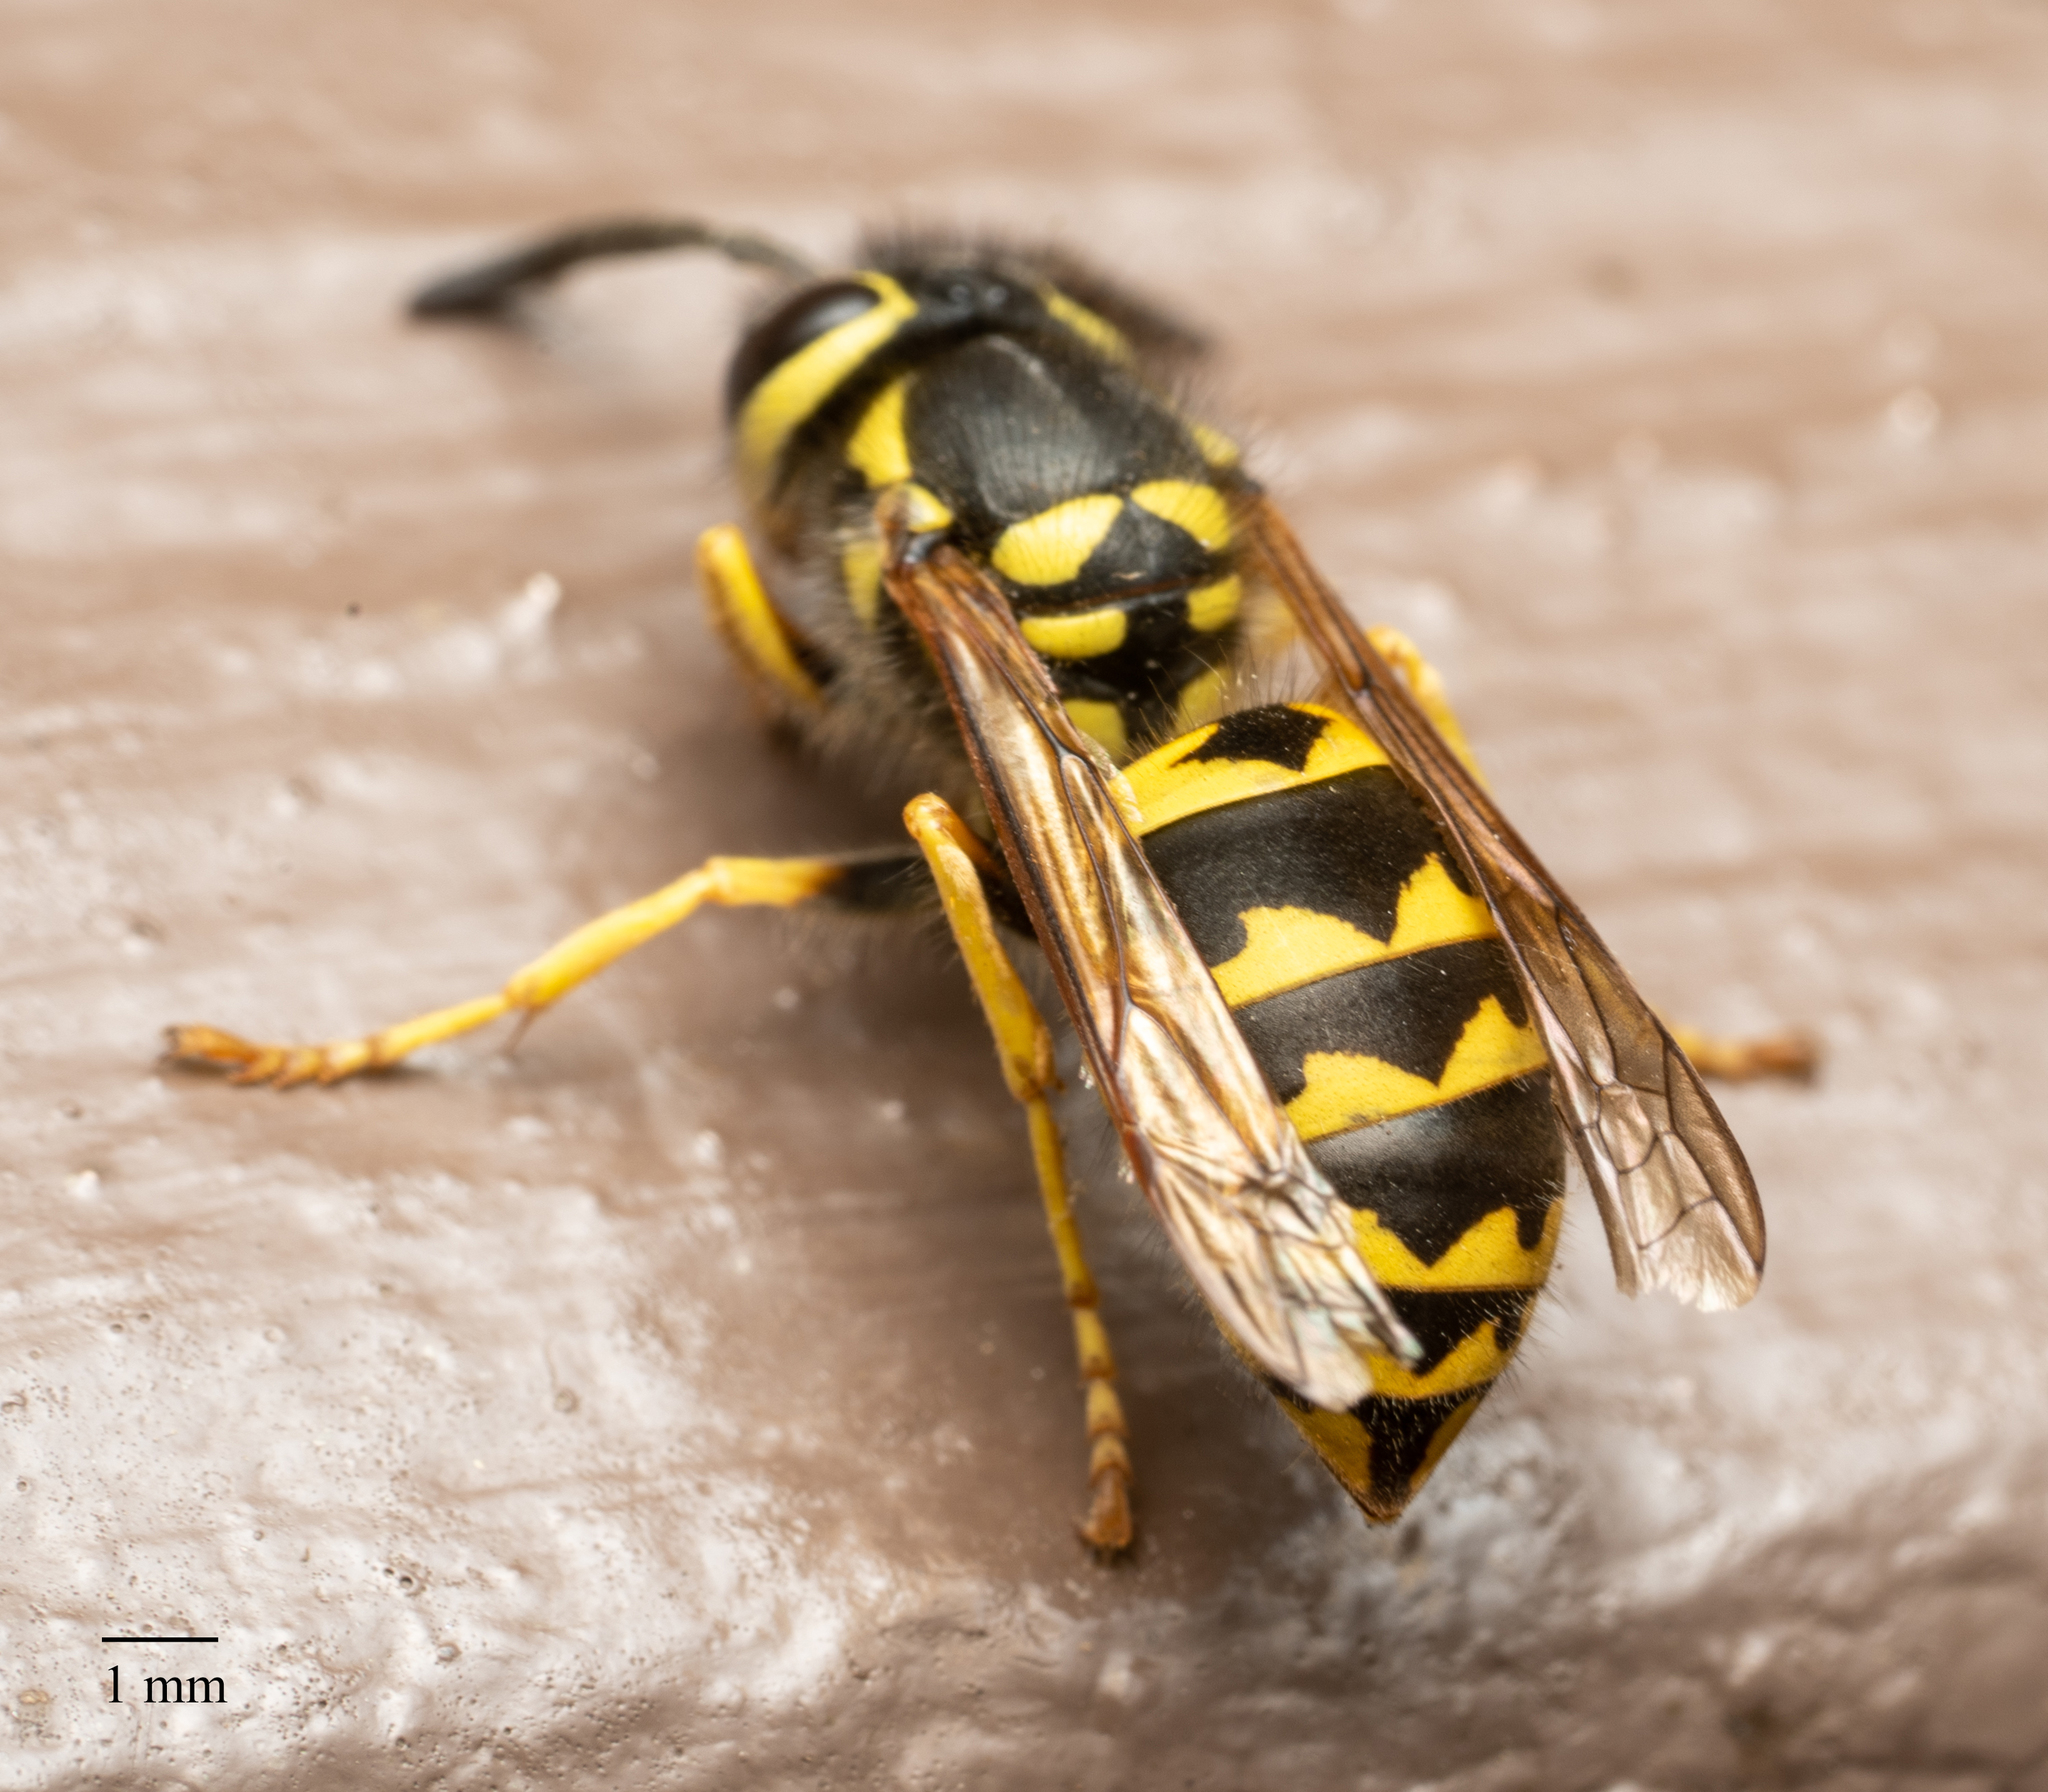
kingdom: Animalia
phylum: Arthropoda
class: Insecta
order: Hymenoptera
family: Vespidae
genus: Vespula
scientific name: Vespula pensylvanica
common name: Western yellowjacket
